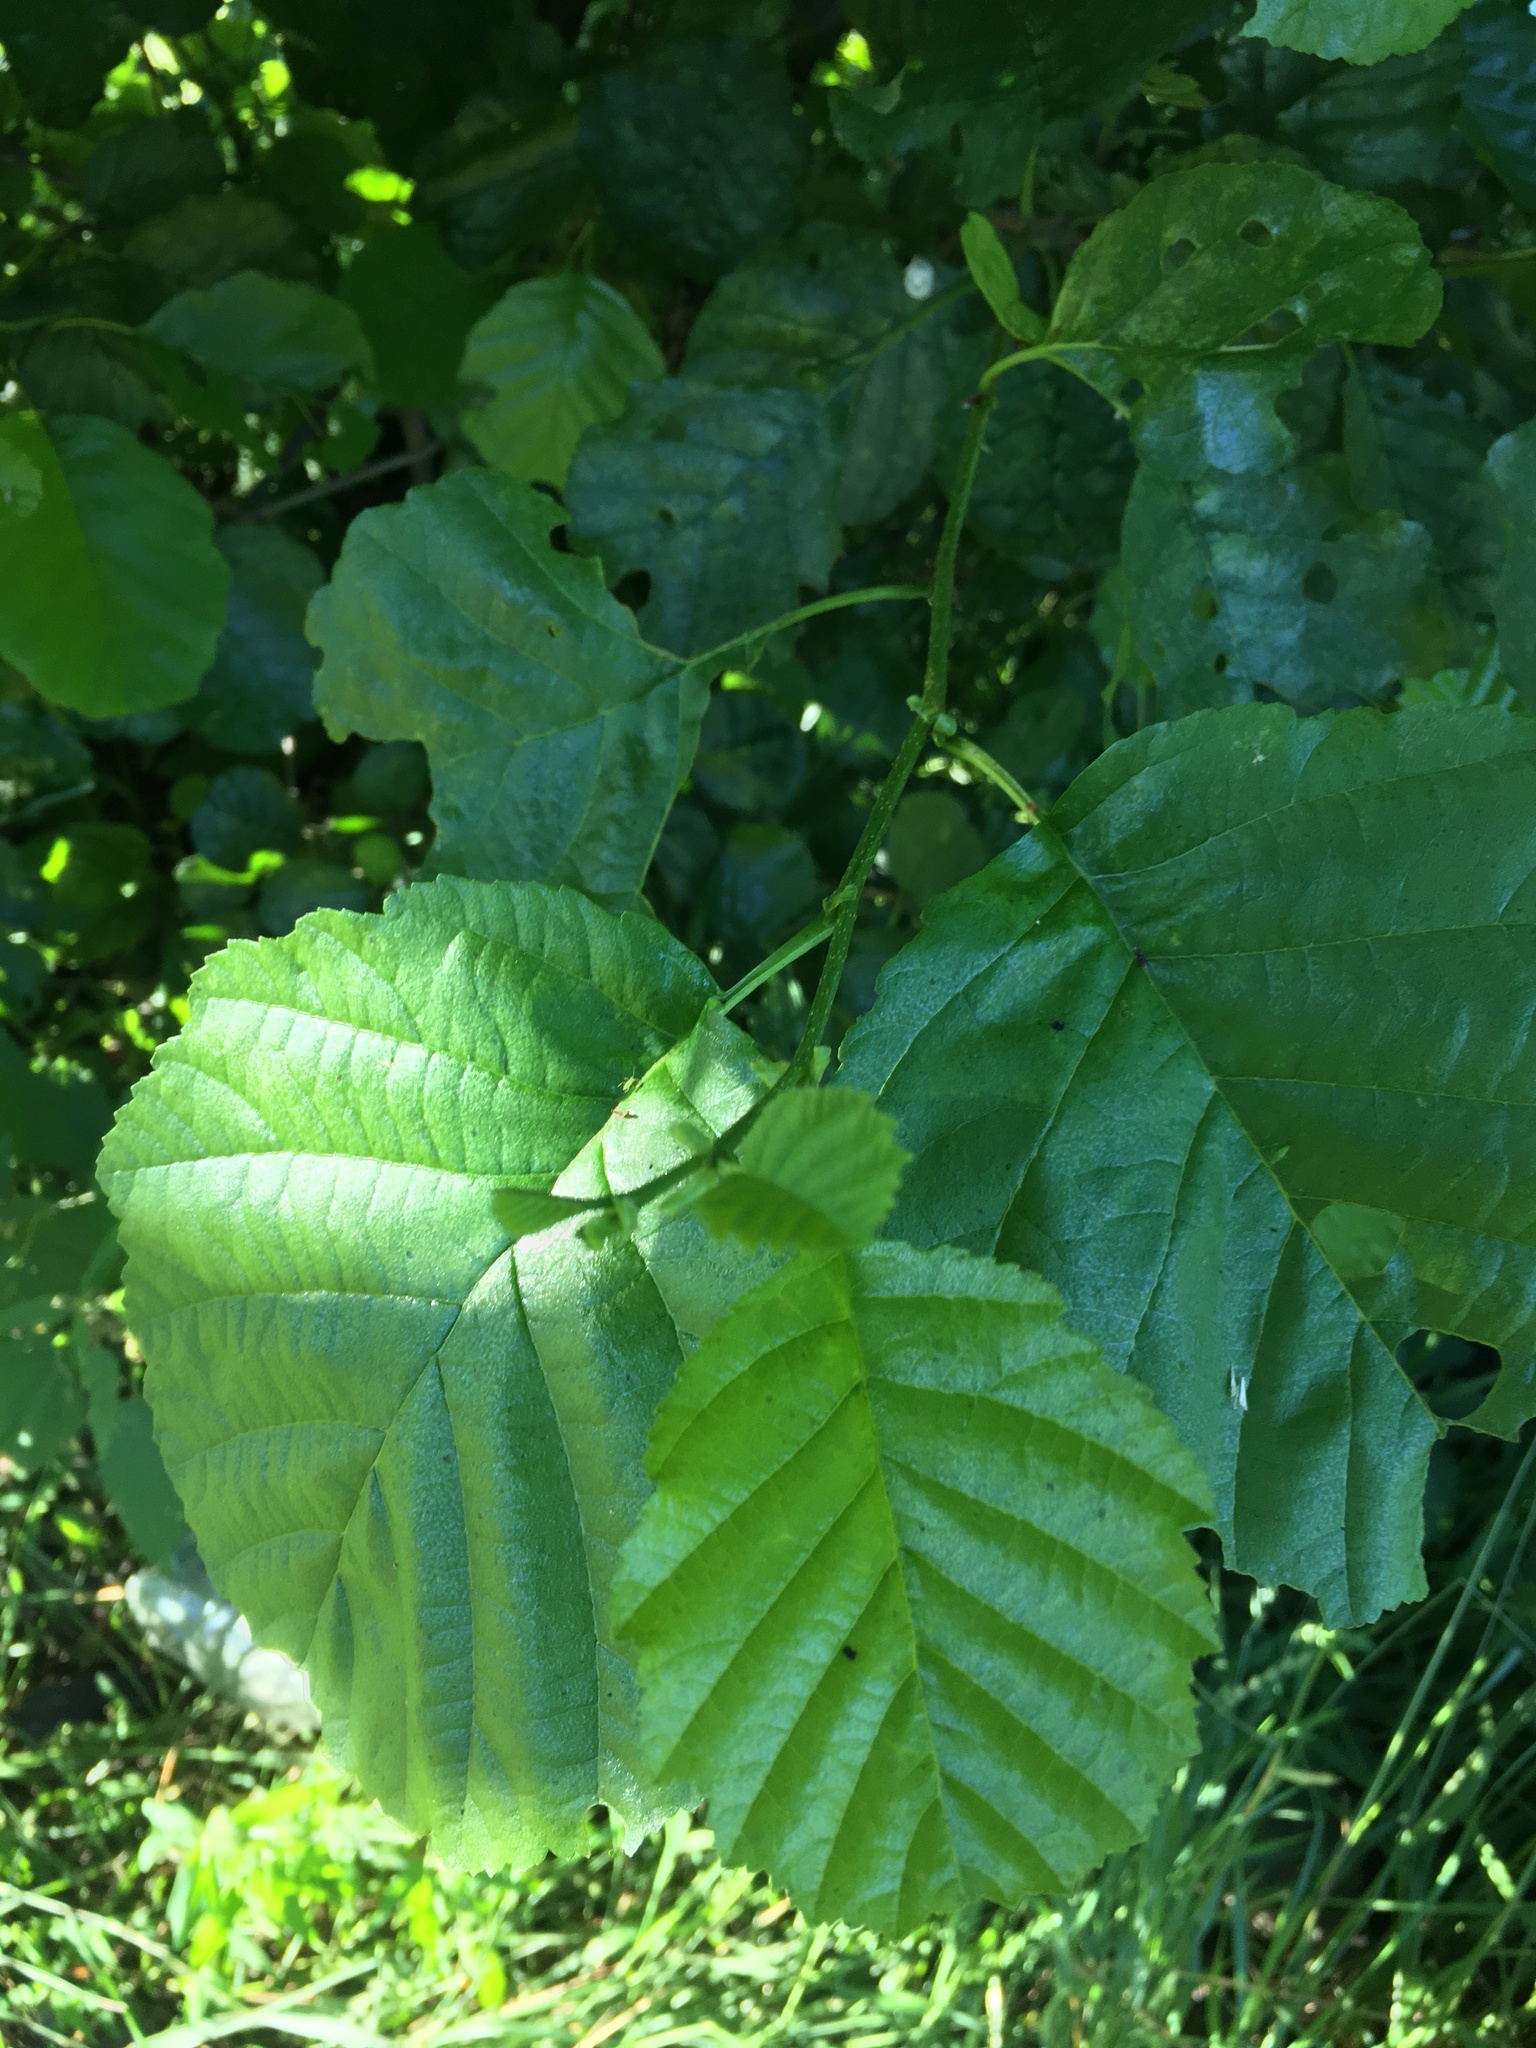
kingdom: Plantae
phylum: Tracheophyta
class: Magnoliopsida
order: Fagales
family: Betulaceae
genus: Alnus
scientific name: Alnus glutinosa
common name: Black alder
